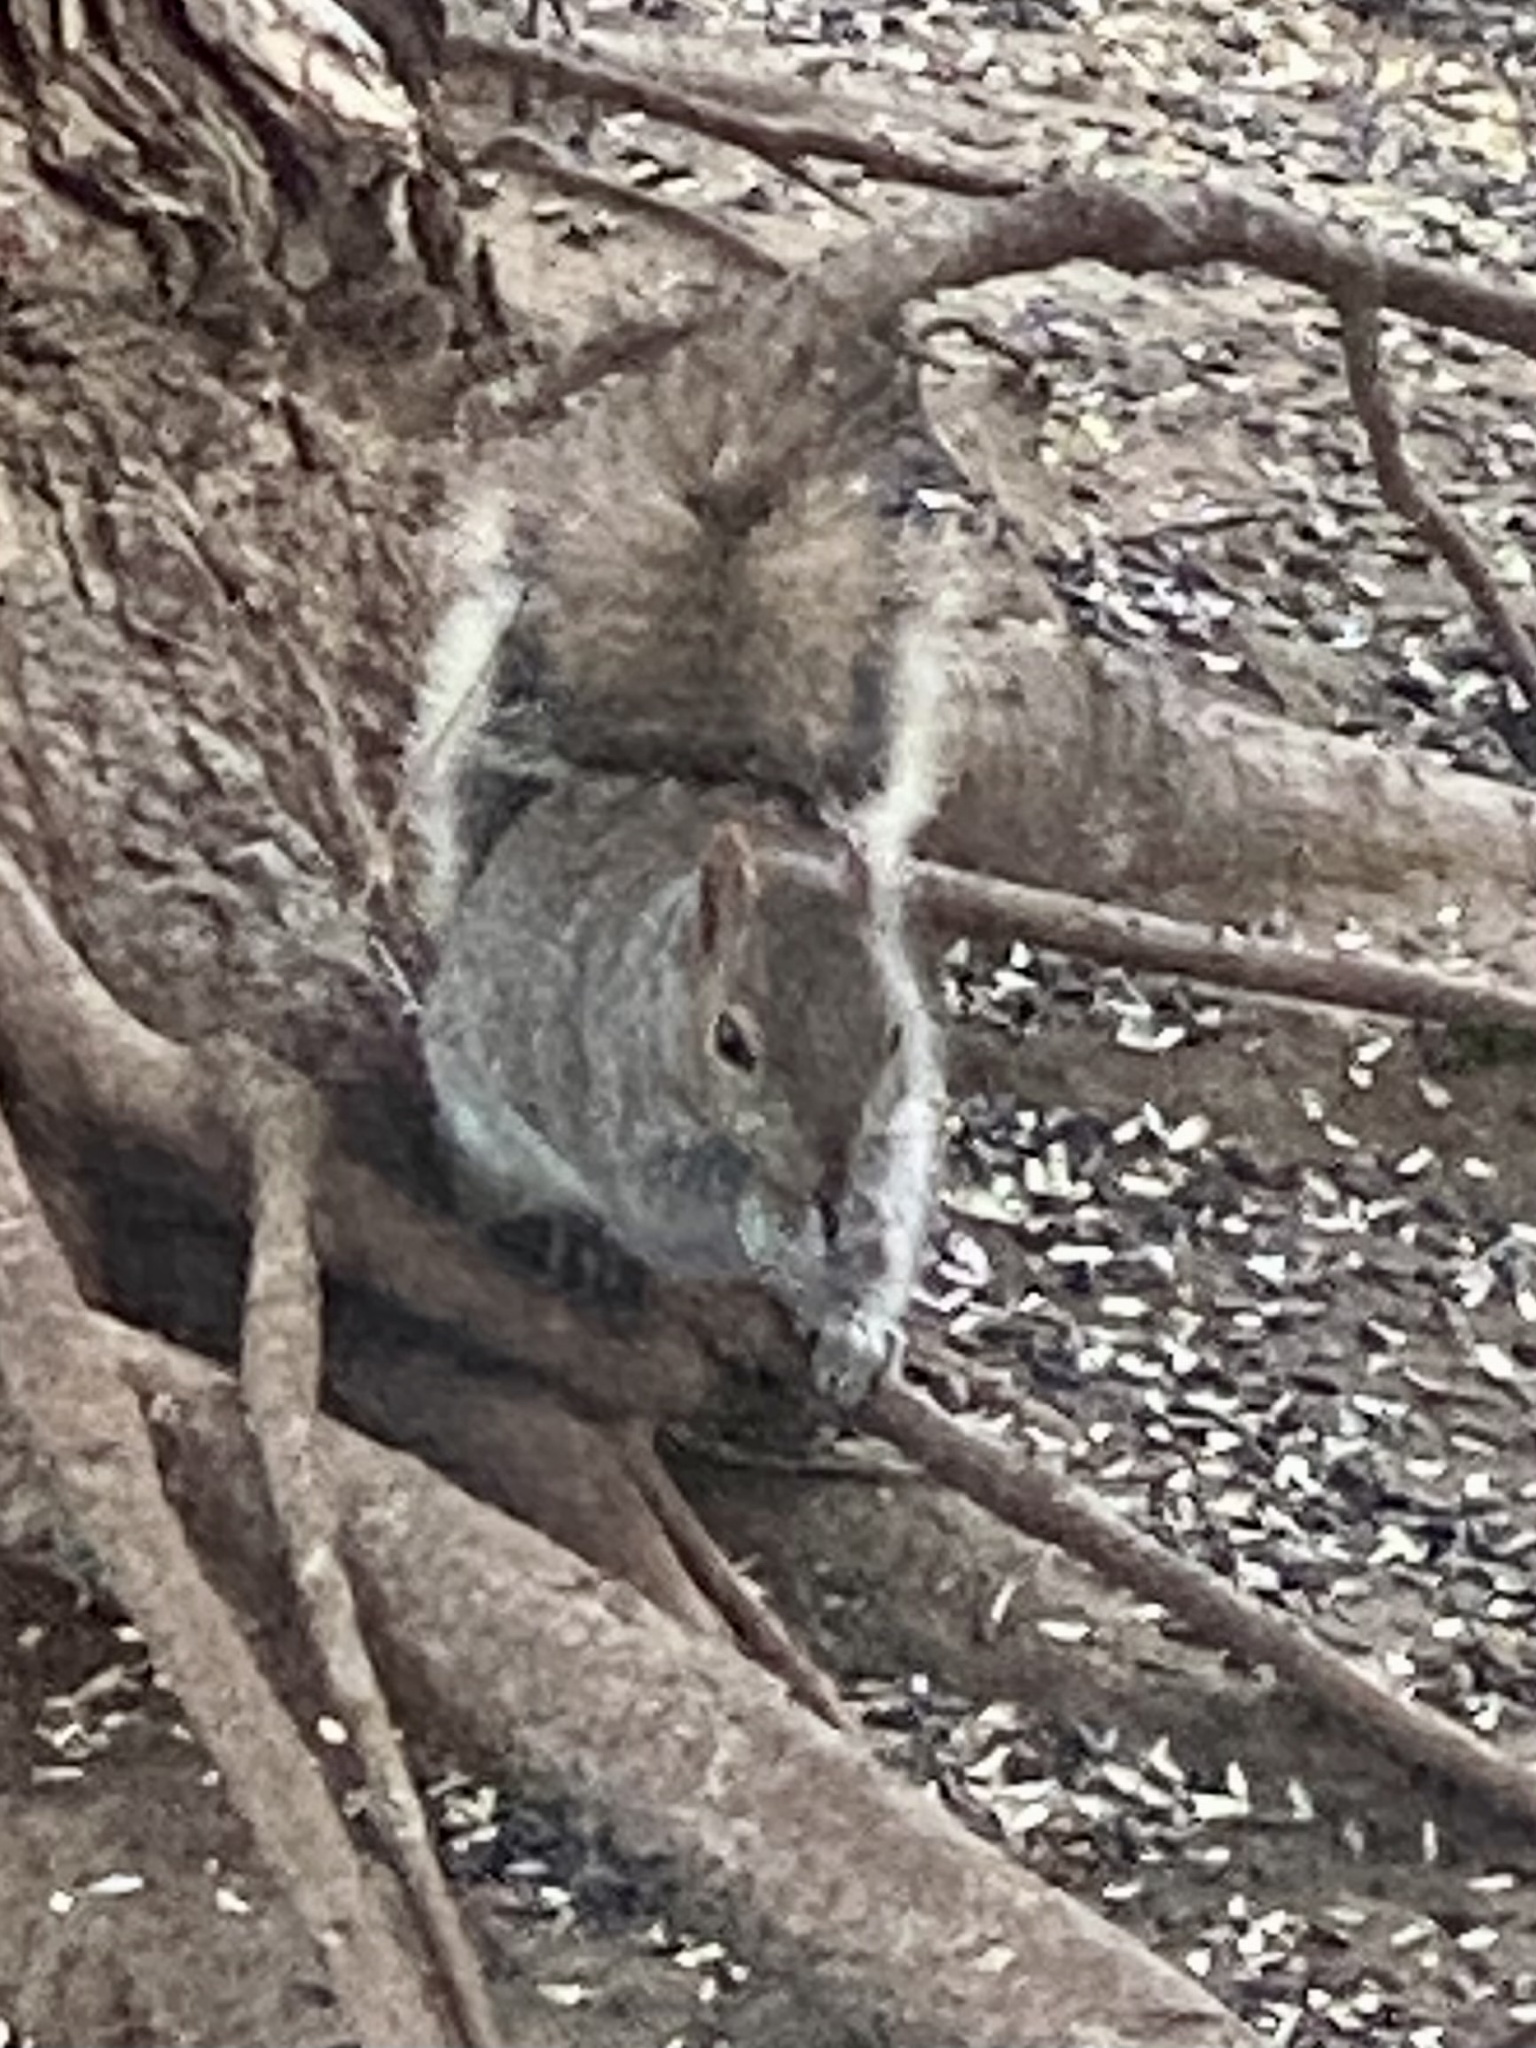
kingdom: Animalia
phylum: Chordata
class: Mammalia
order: Rodentia
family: Sciuridae
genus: Sciurus
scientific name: Sciurus carolinensis
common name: Eastern gray squirrel
